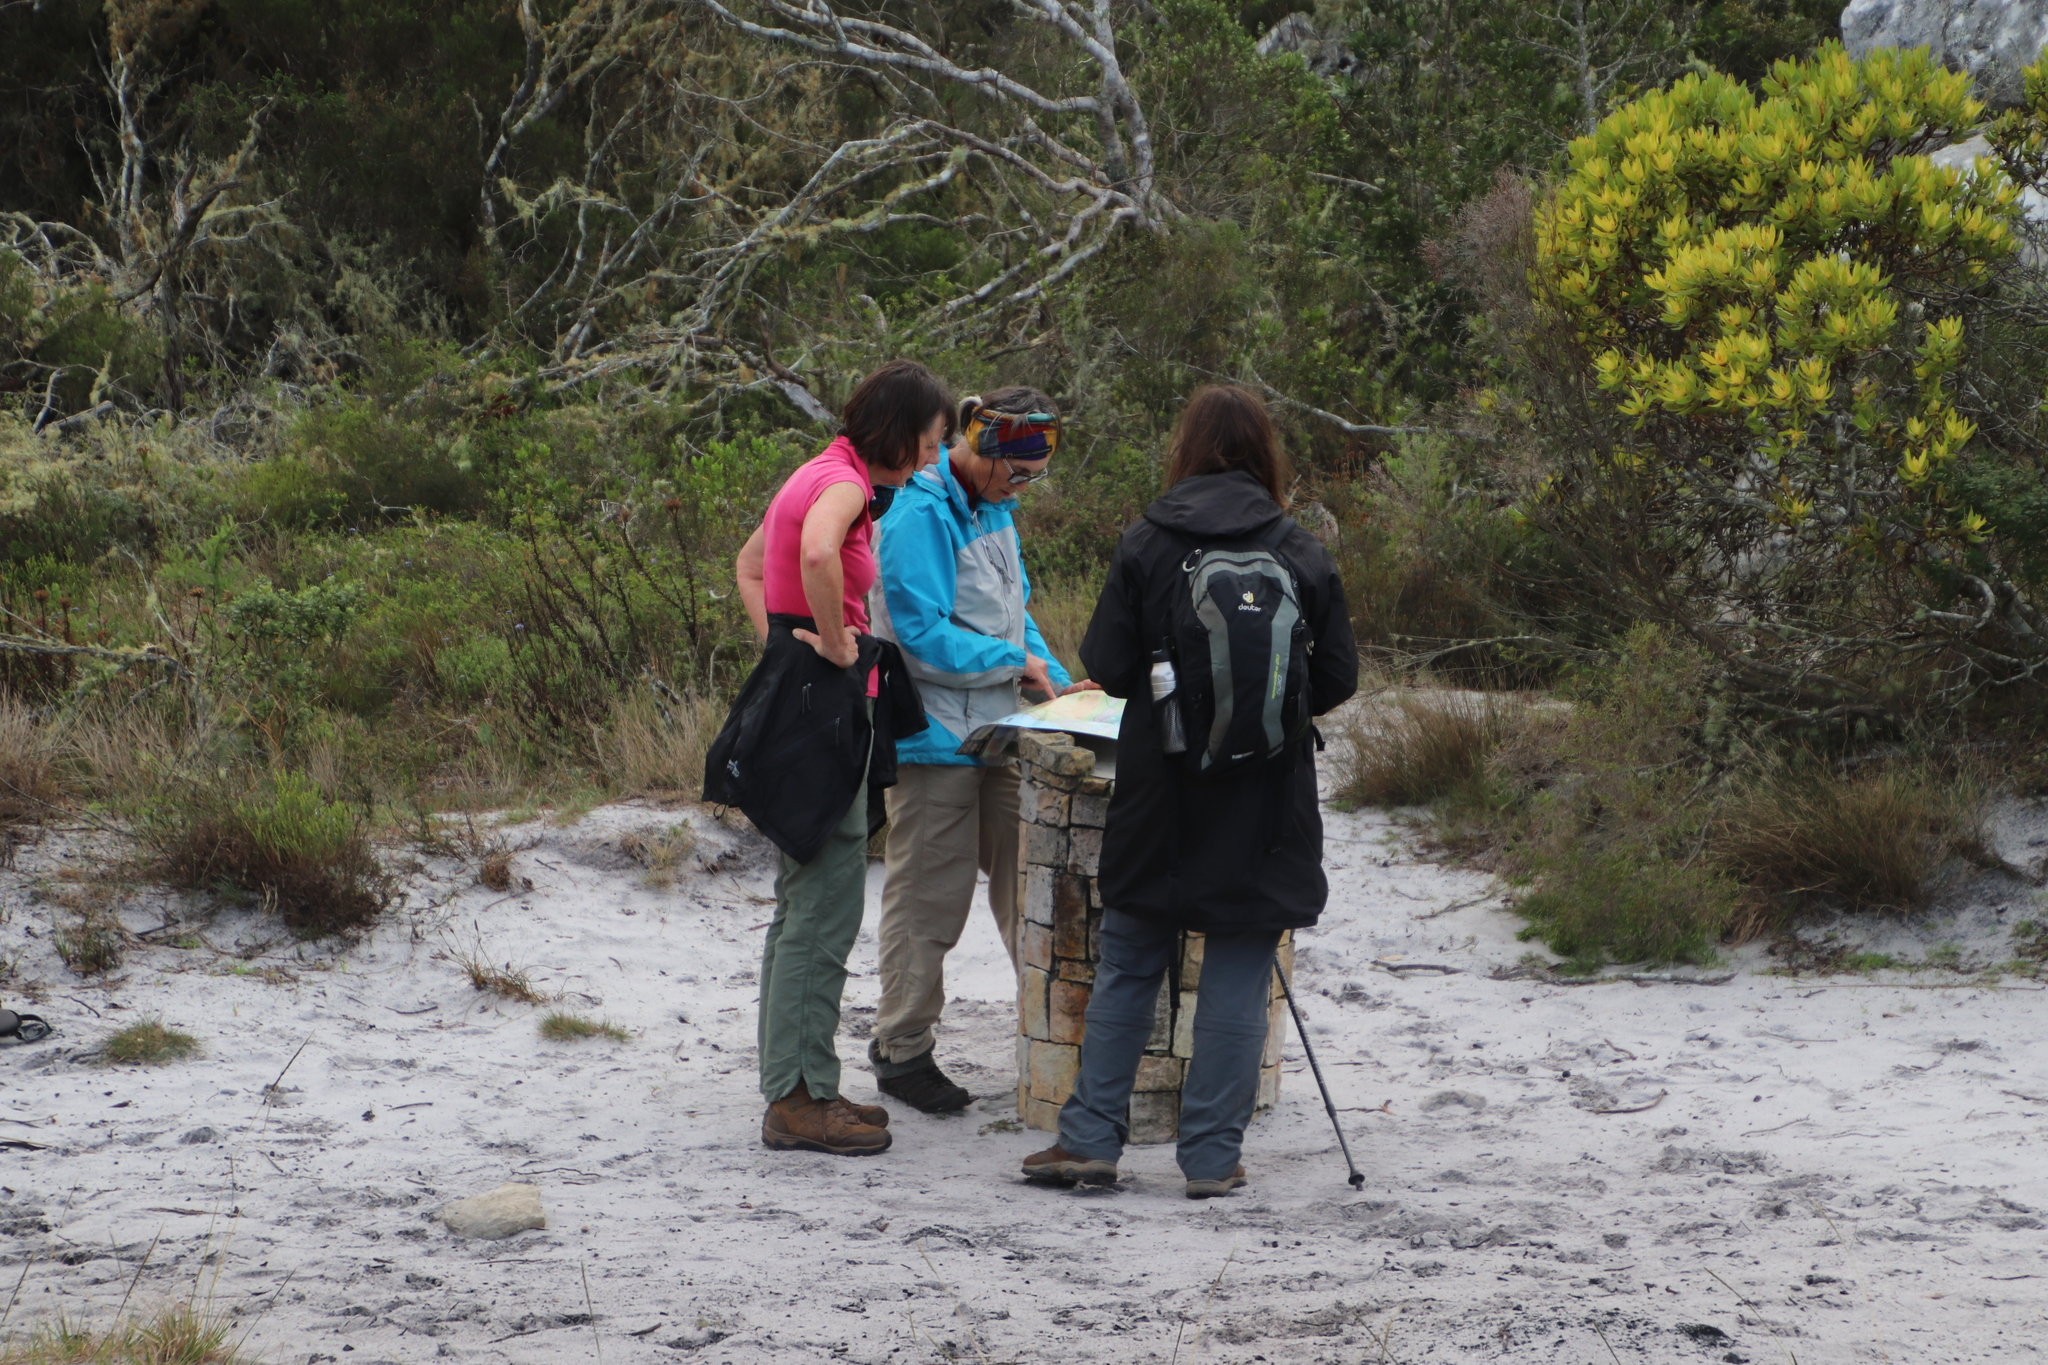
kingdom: Plantae
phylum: Tracheophyta
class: Magnoliopsida
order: Proteales
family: Proteaceae
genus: Leucadendron
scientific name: Leucadendron laureolum
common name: Golden sunshinebush
